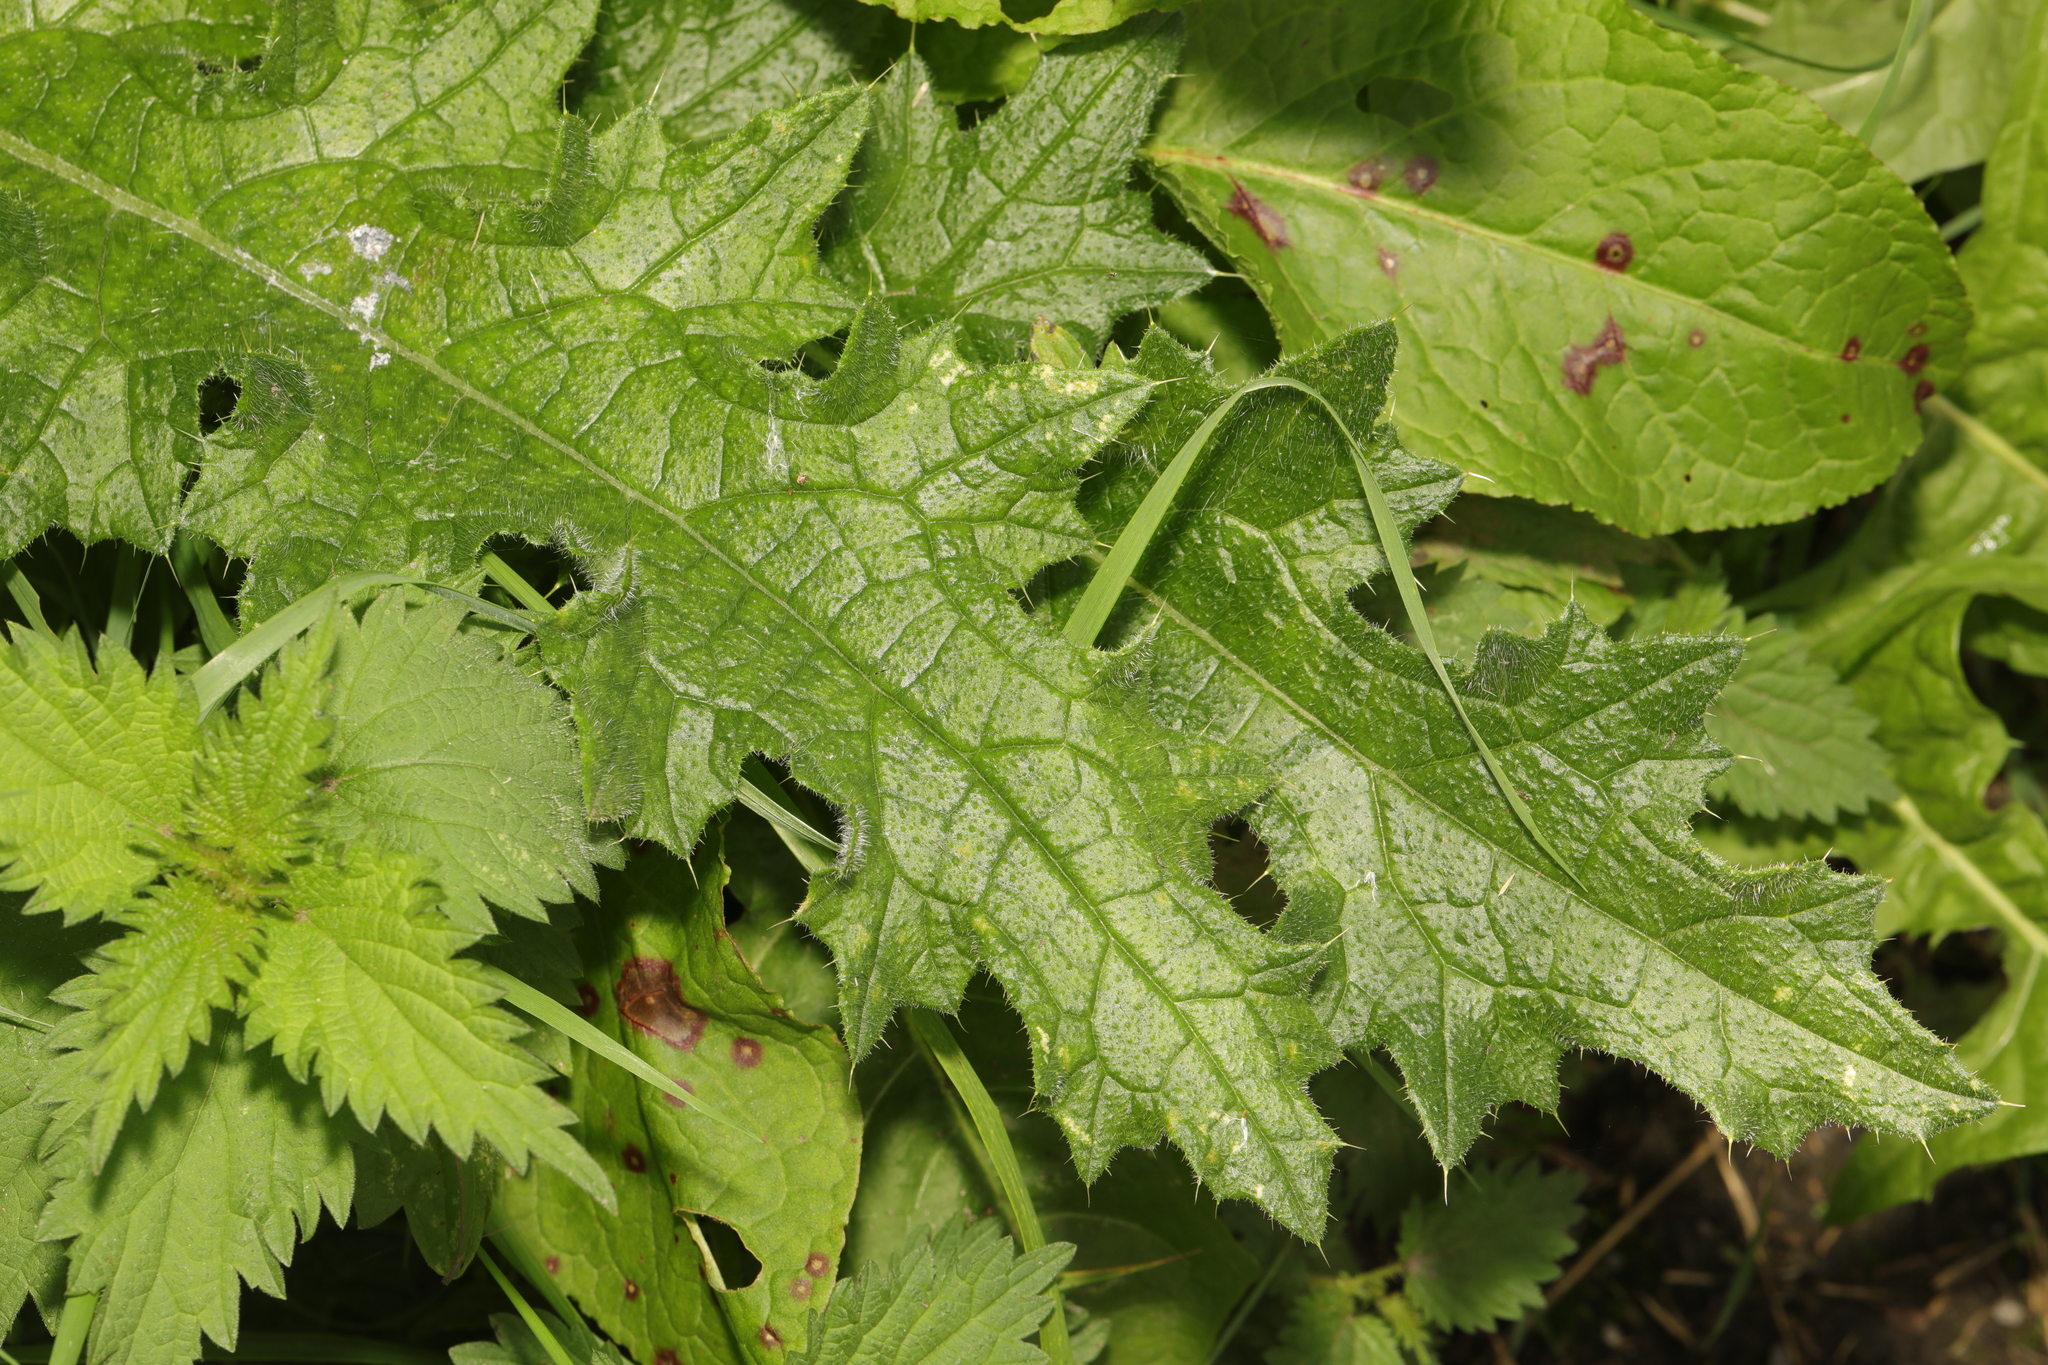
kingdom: Plantae
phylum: Tracheophyta
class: Magnoliopsida
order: Asterales
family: Asteraceae
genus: Cirsium
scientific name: Cirsium vulgare
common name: Bull thistle
